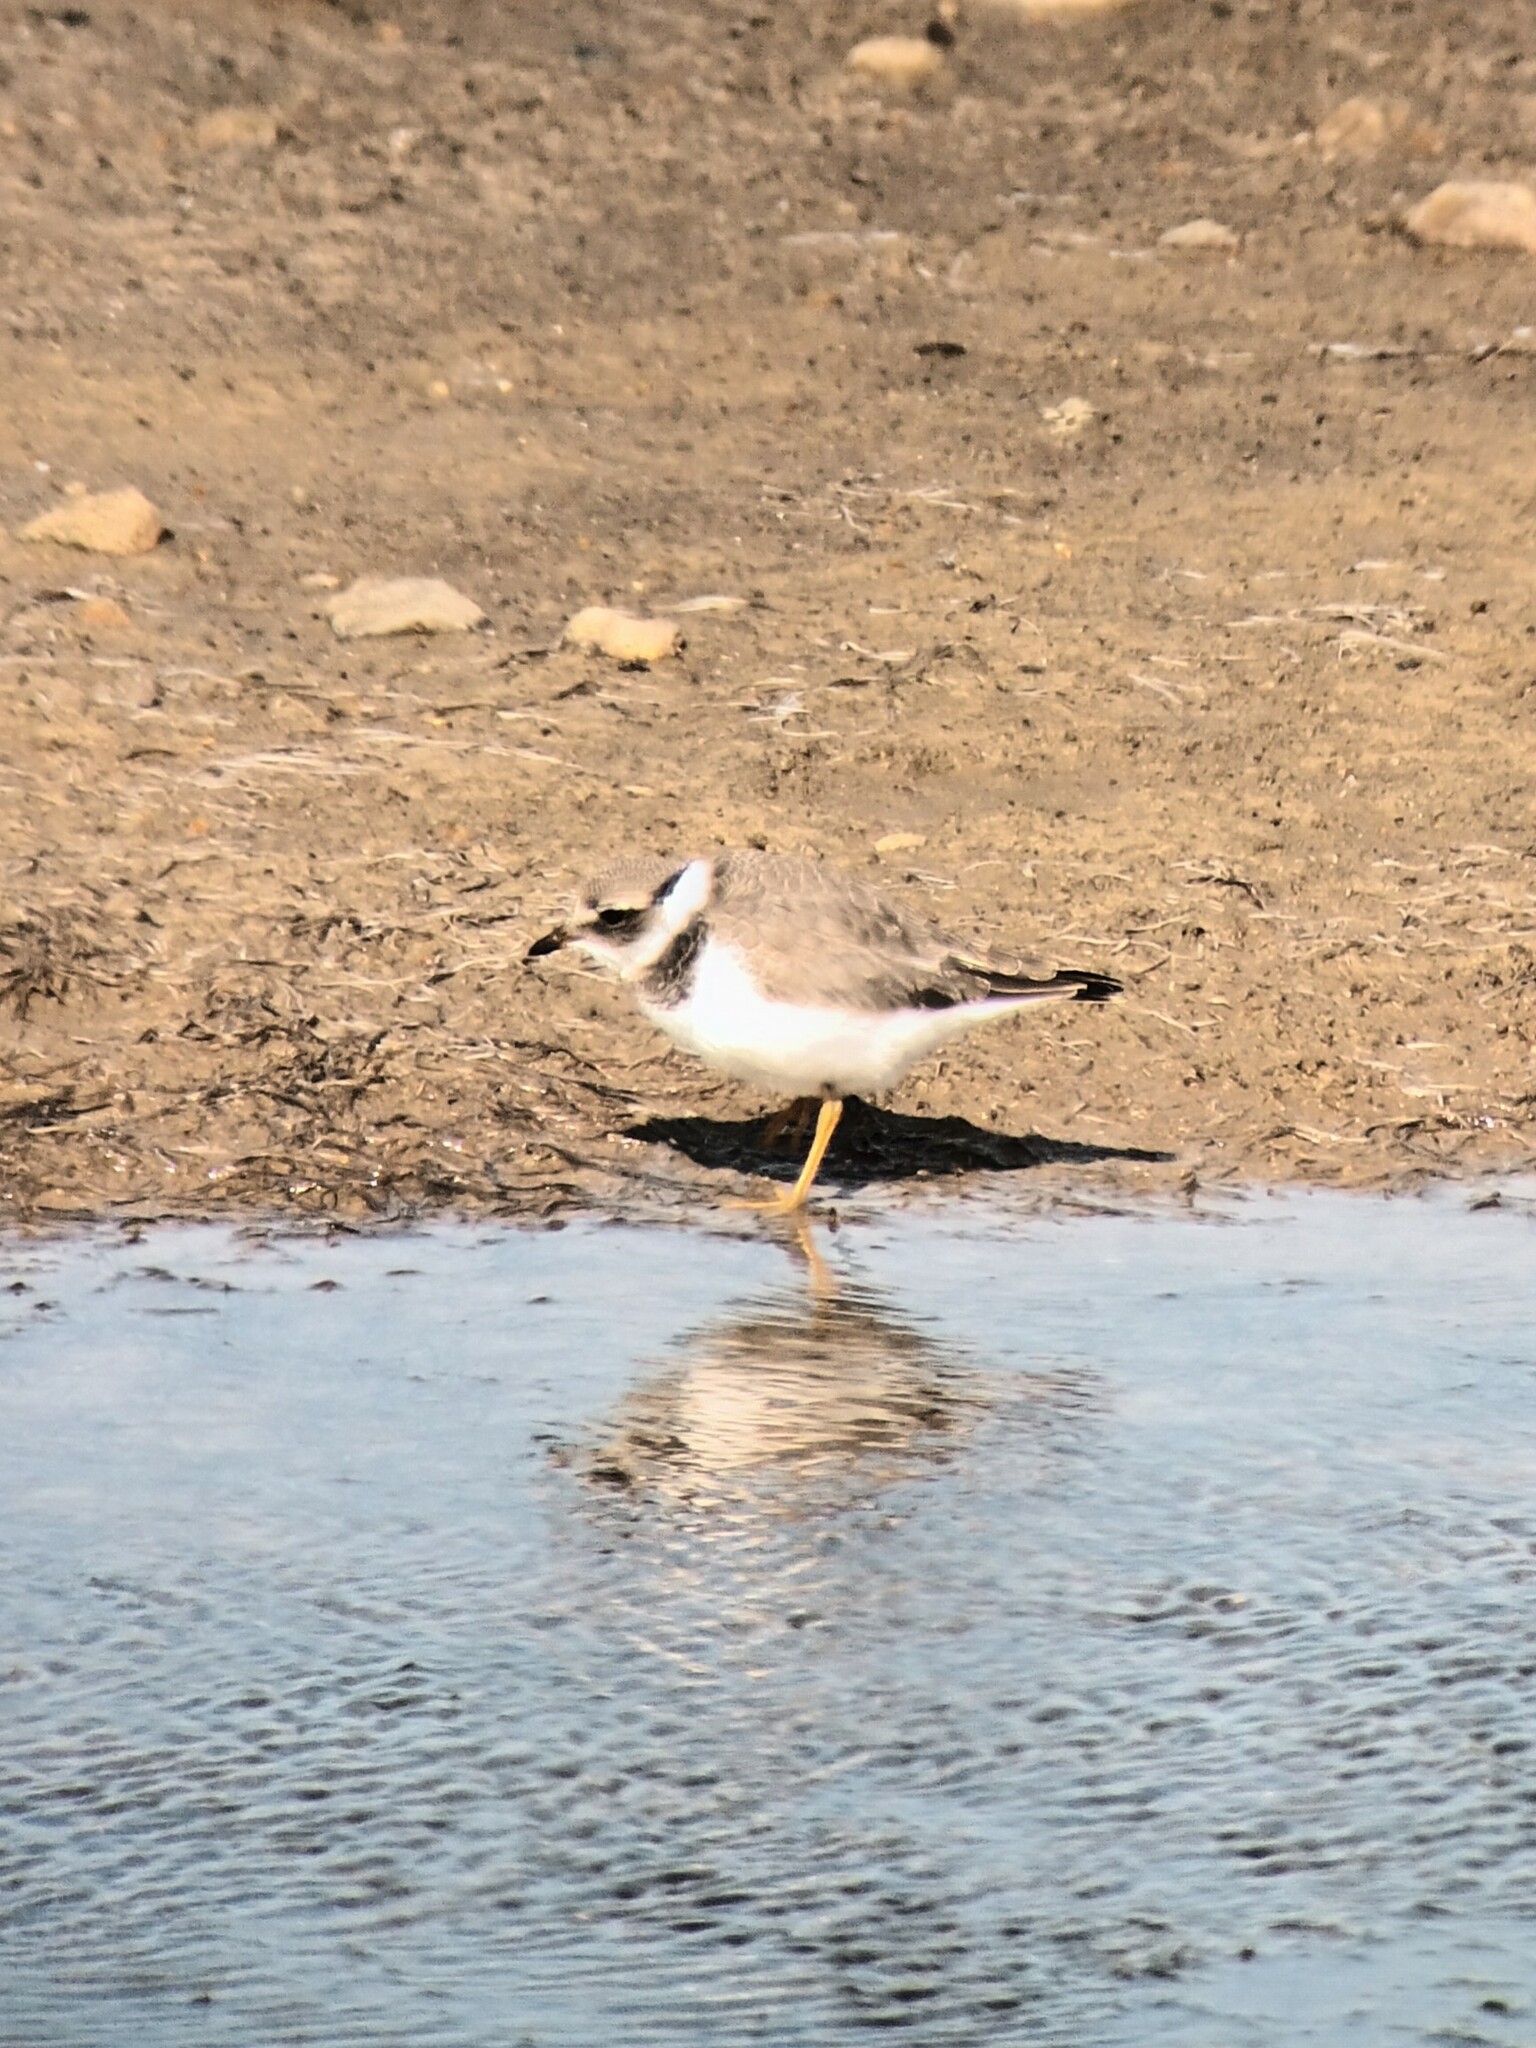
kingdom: Animalia
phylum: Chordata
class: Aves
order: Charadriiformes
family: Charadriidae
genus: Charadrius
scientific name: Charadrius hiaticula
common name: Common ringed plover
